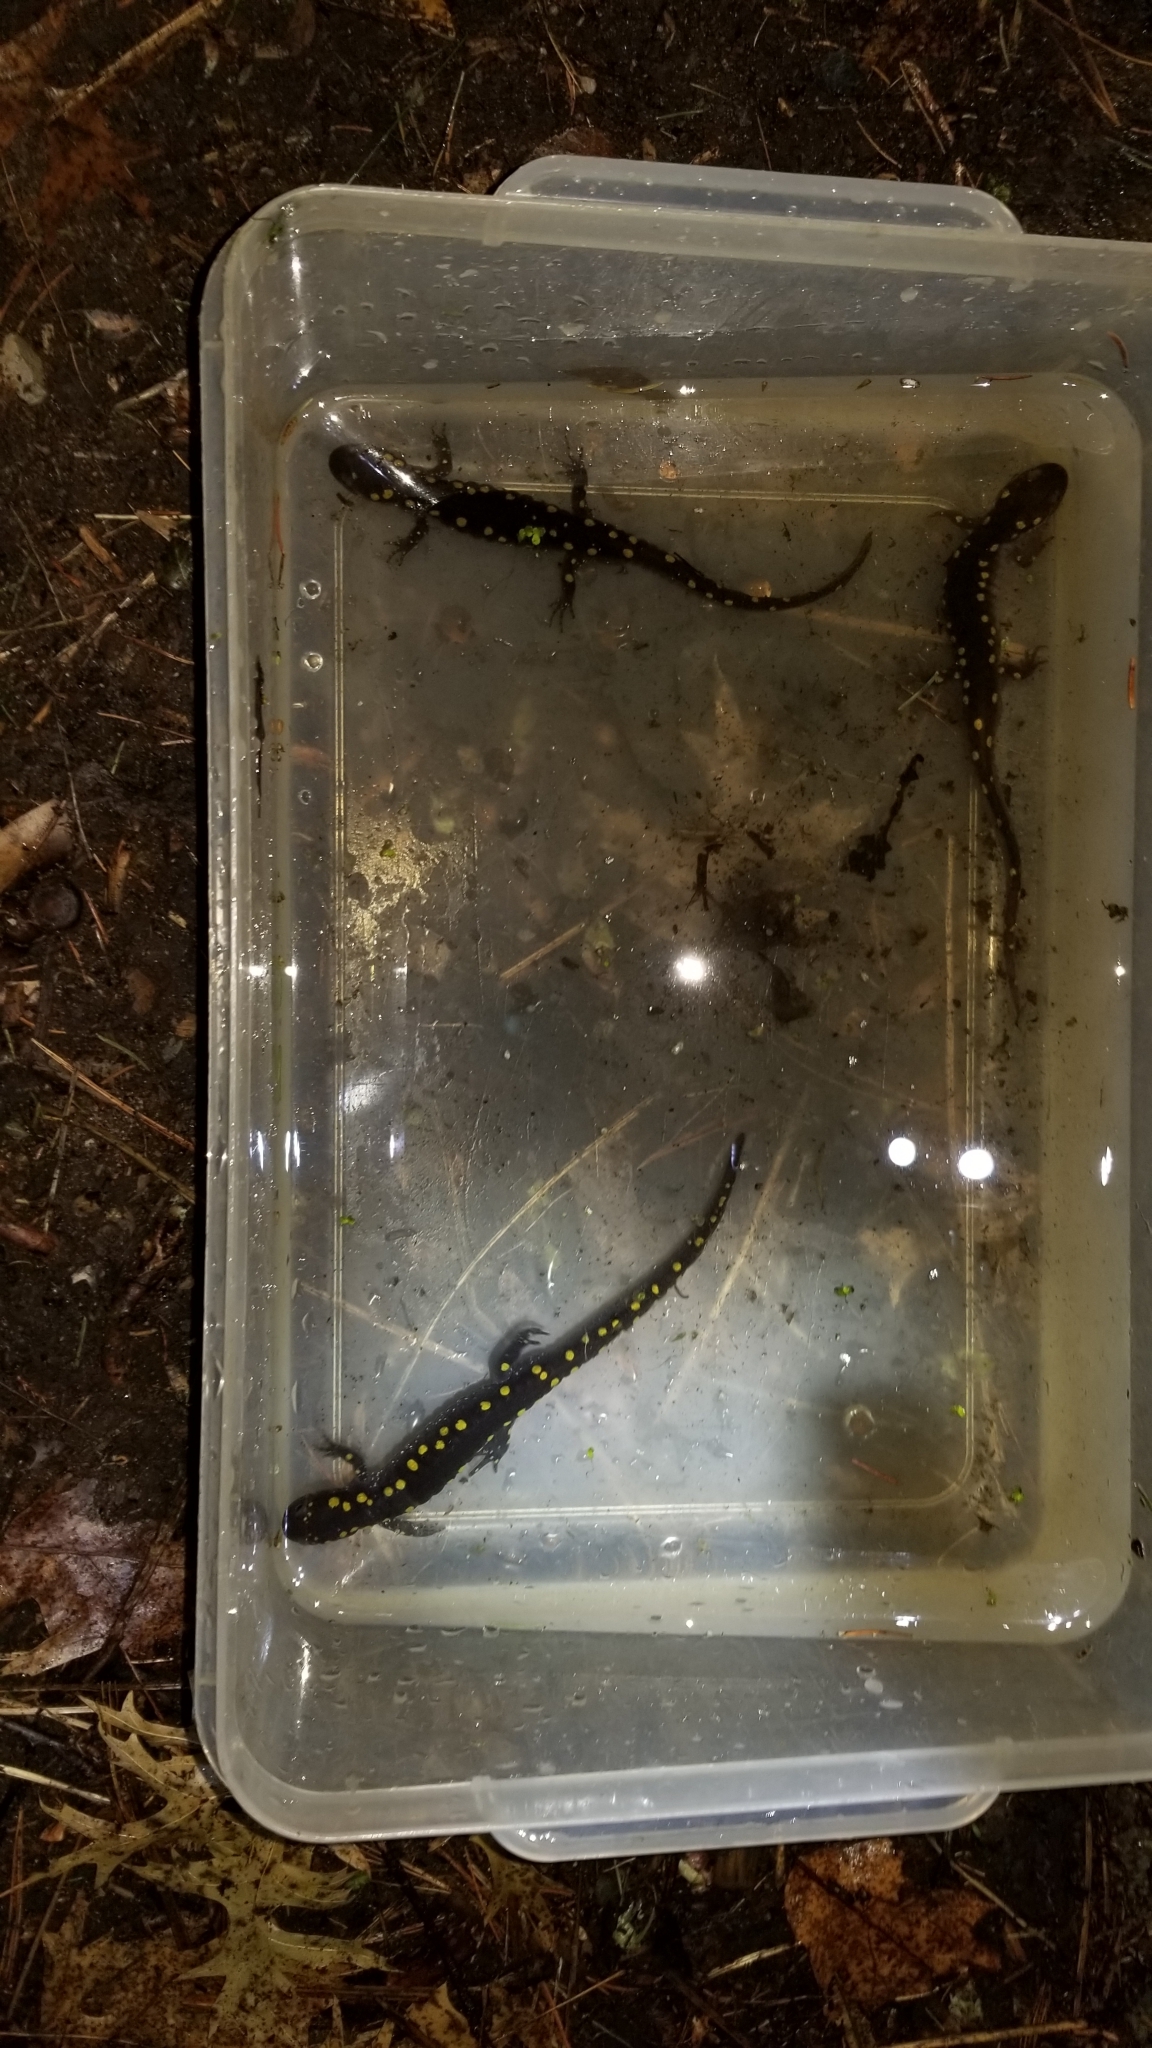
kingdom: Animalia
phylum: Chordata
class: Amphibia
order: Caudata
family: Ambystomatidae
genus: Ambystoma
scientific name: Ambystoma maculatum
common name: Spotted salamander
